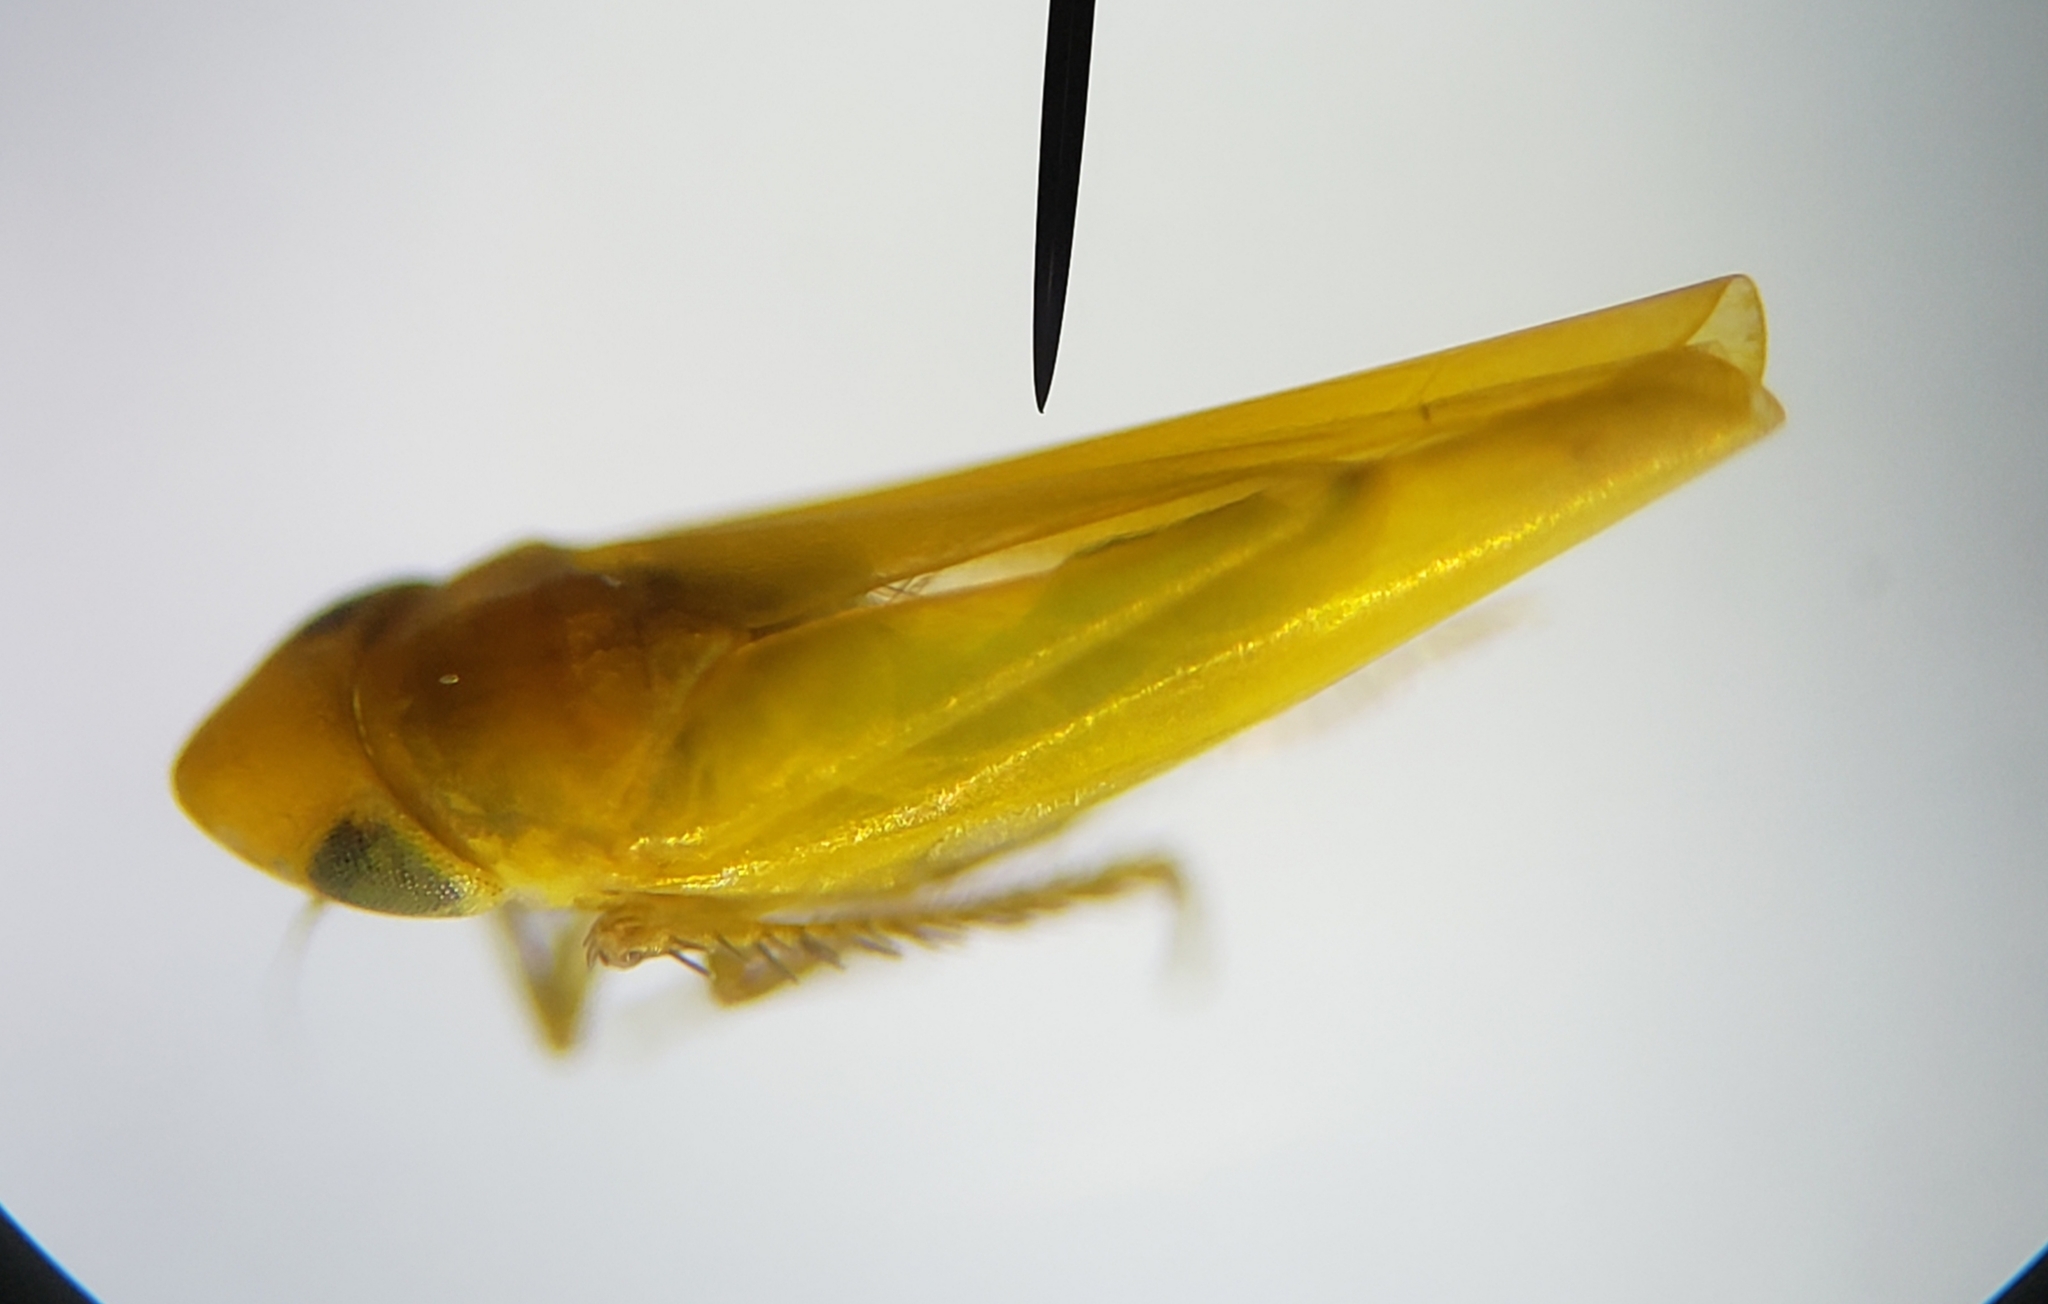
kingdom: Animalia
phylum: Arthropoda
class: Insecta
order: Hemiptera
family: Cicadellidae
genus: Alconeura
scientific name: Alconeura bisagittata
